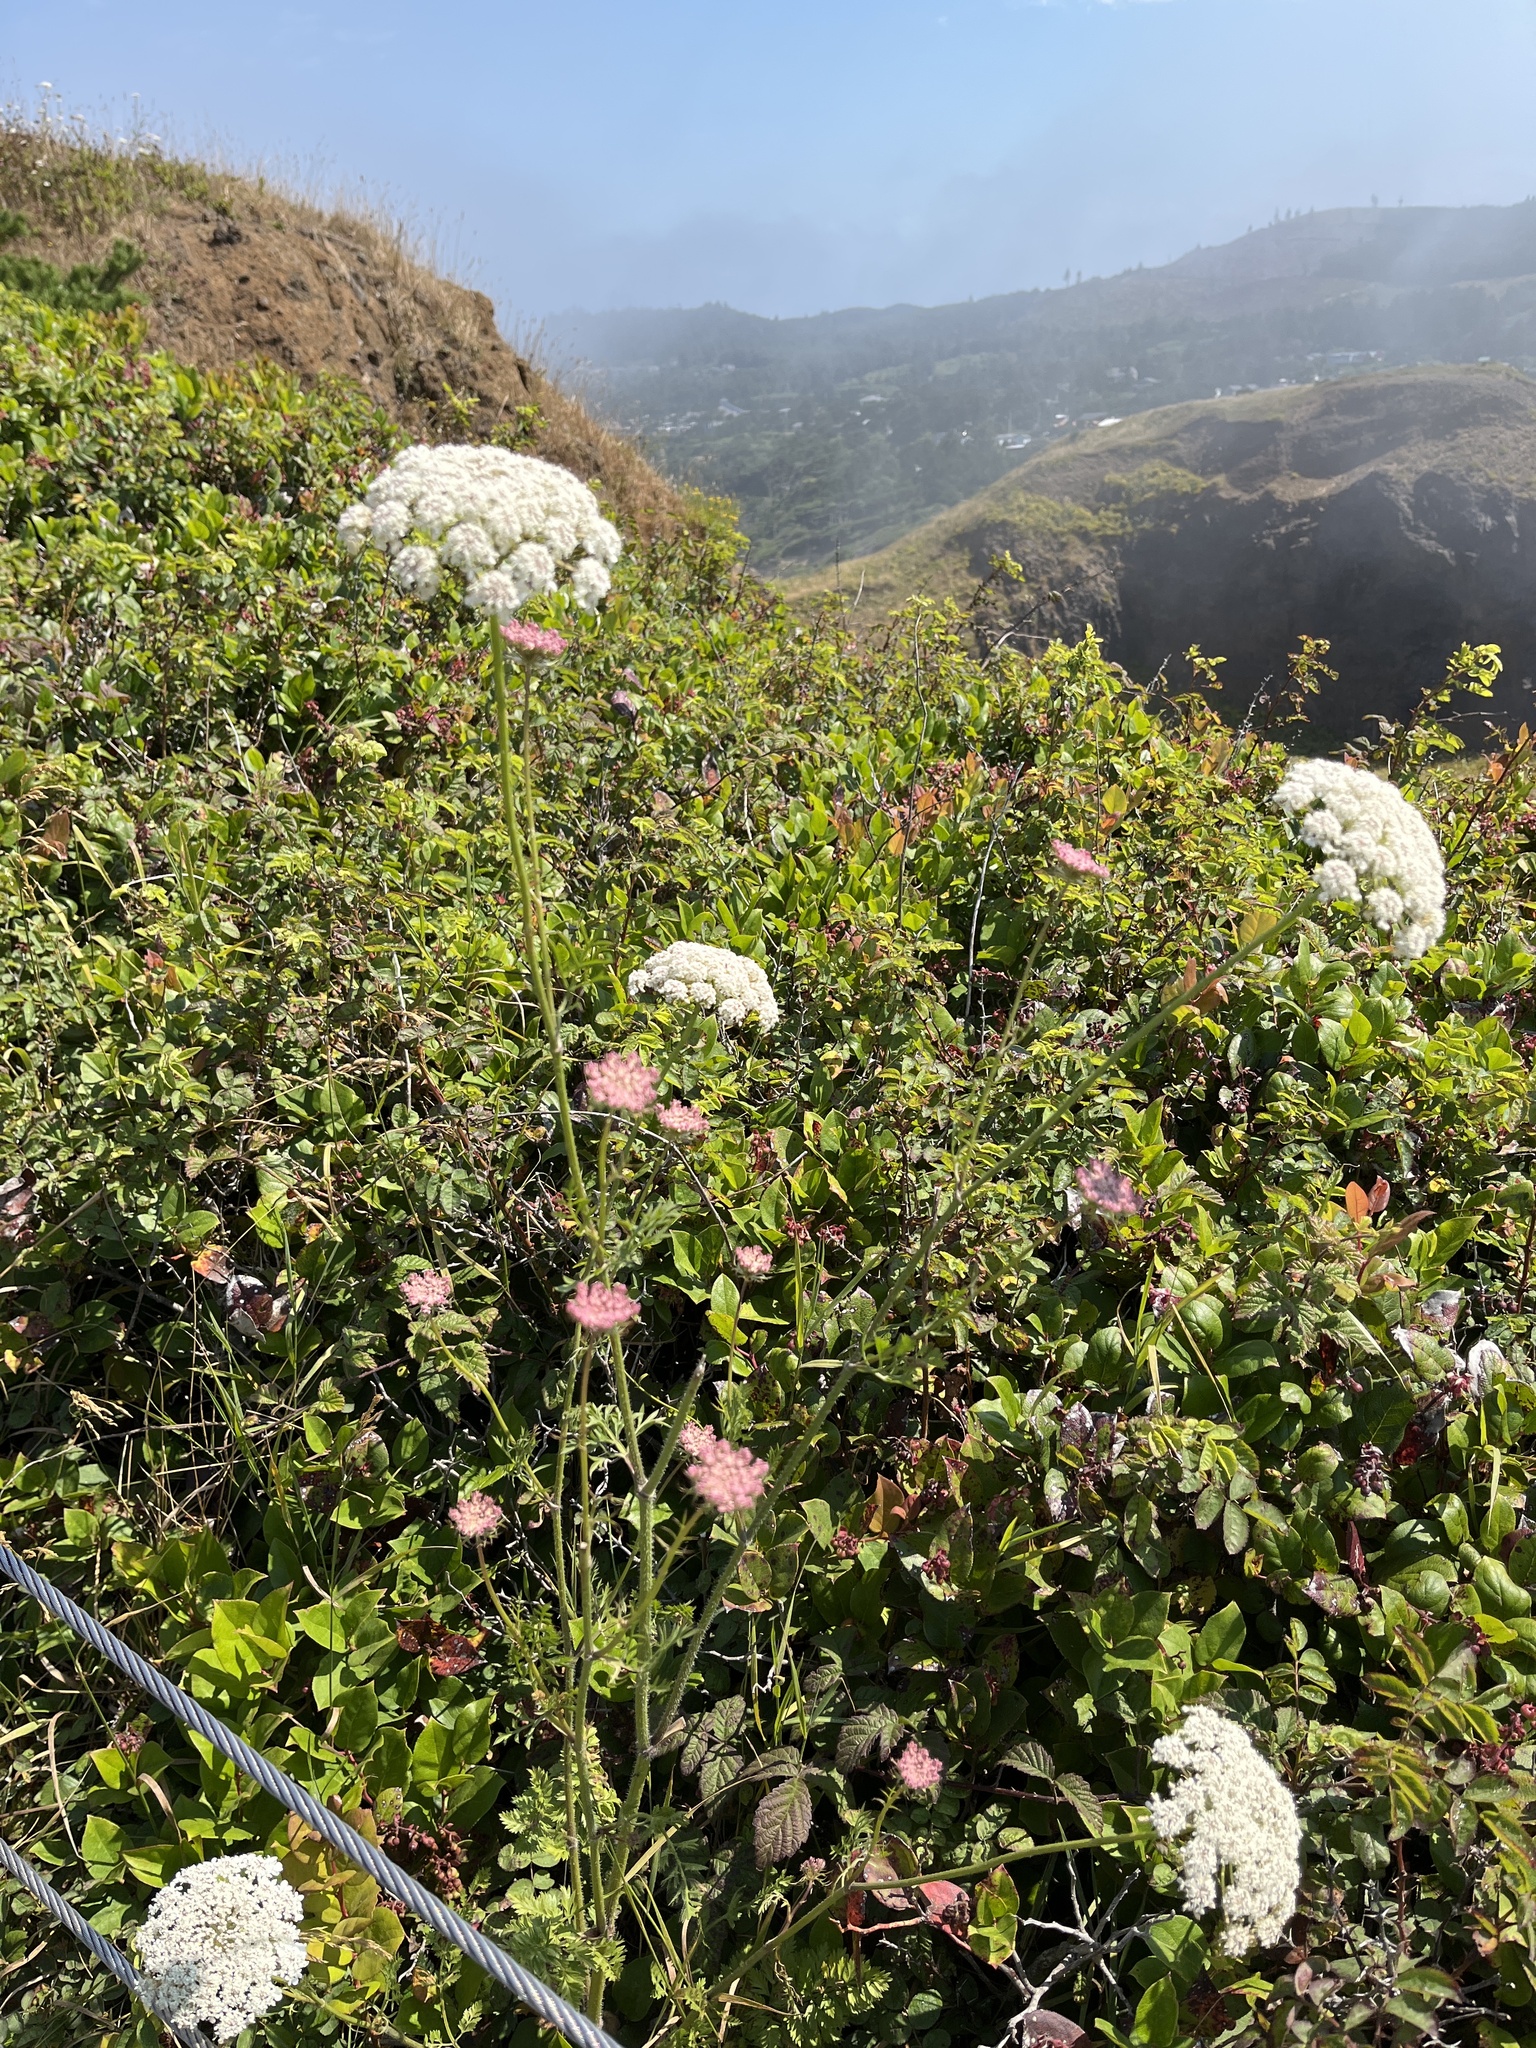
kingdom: Plantae
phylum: Tracheophyta
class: Magnoliopsida
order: Apiales
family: Apiaceae
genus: Daucus
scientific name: Daucus carota
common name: Wild carrot
